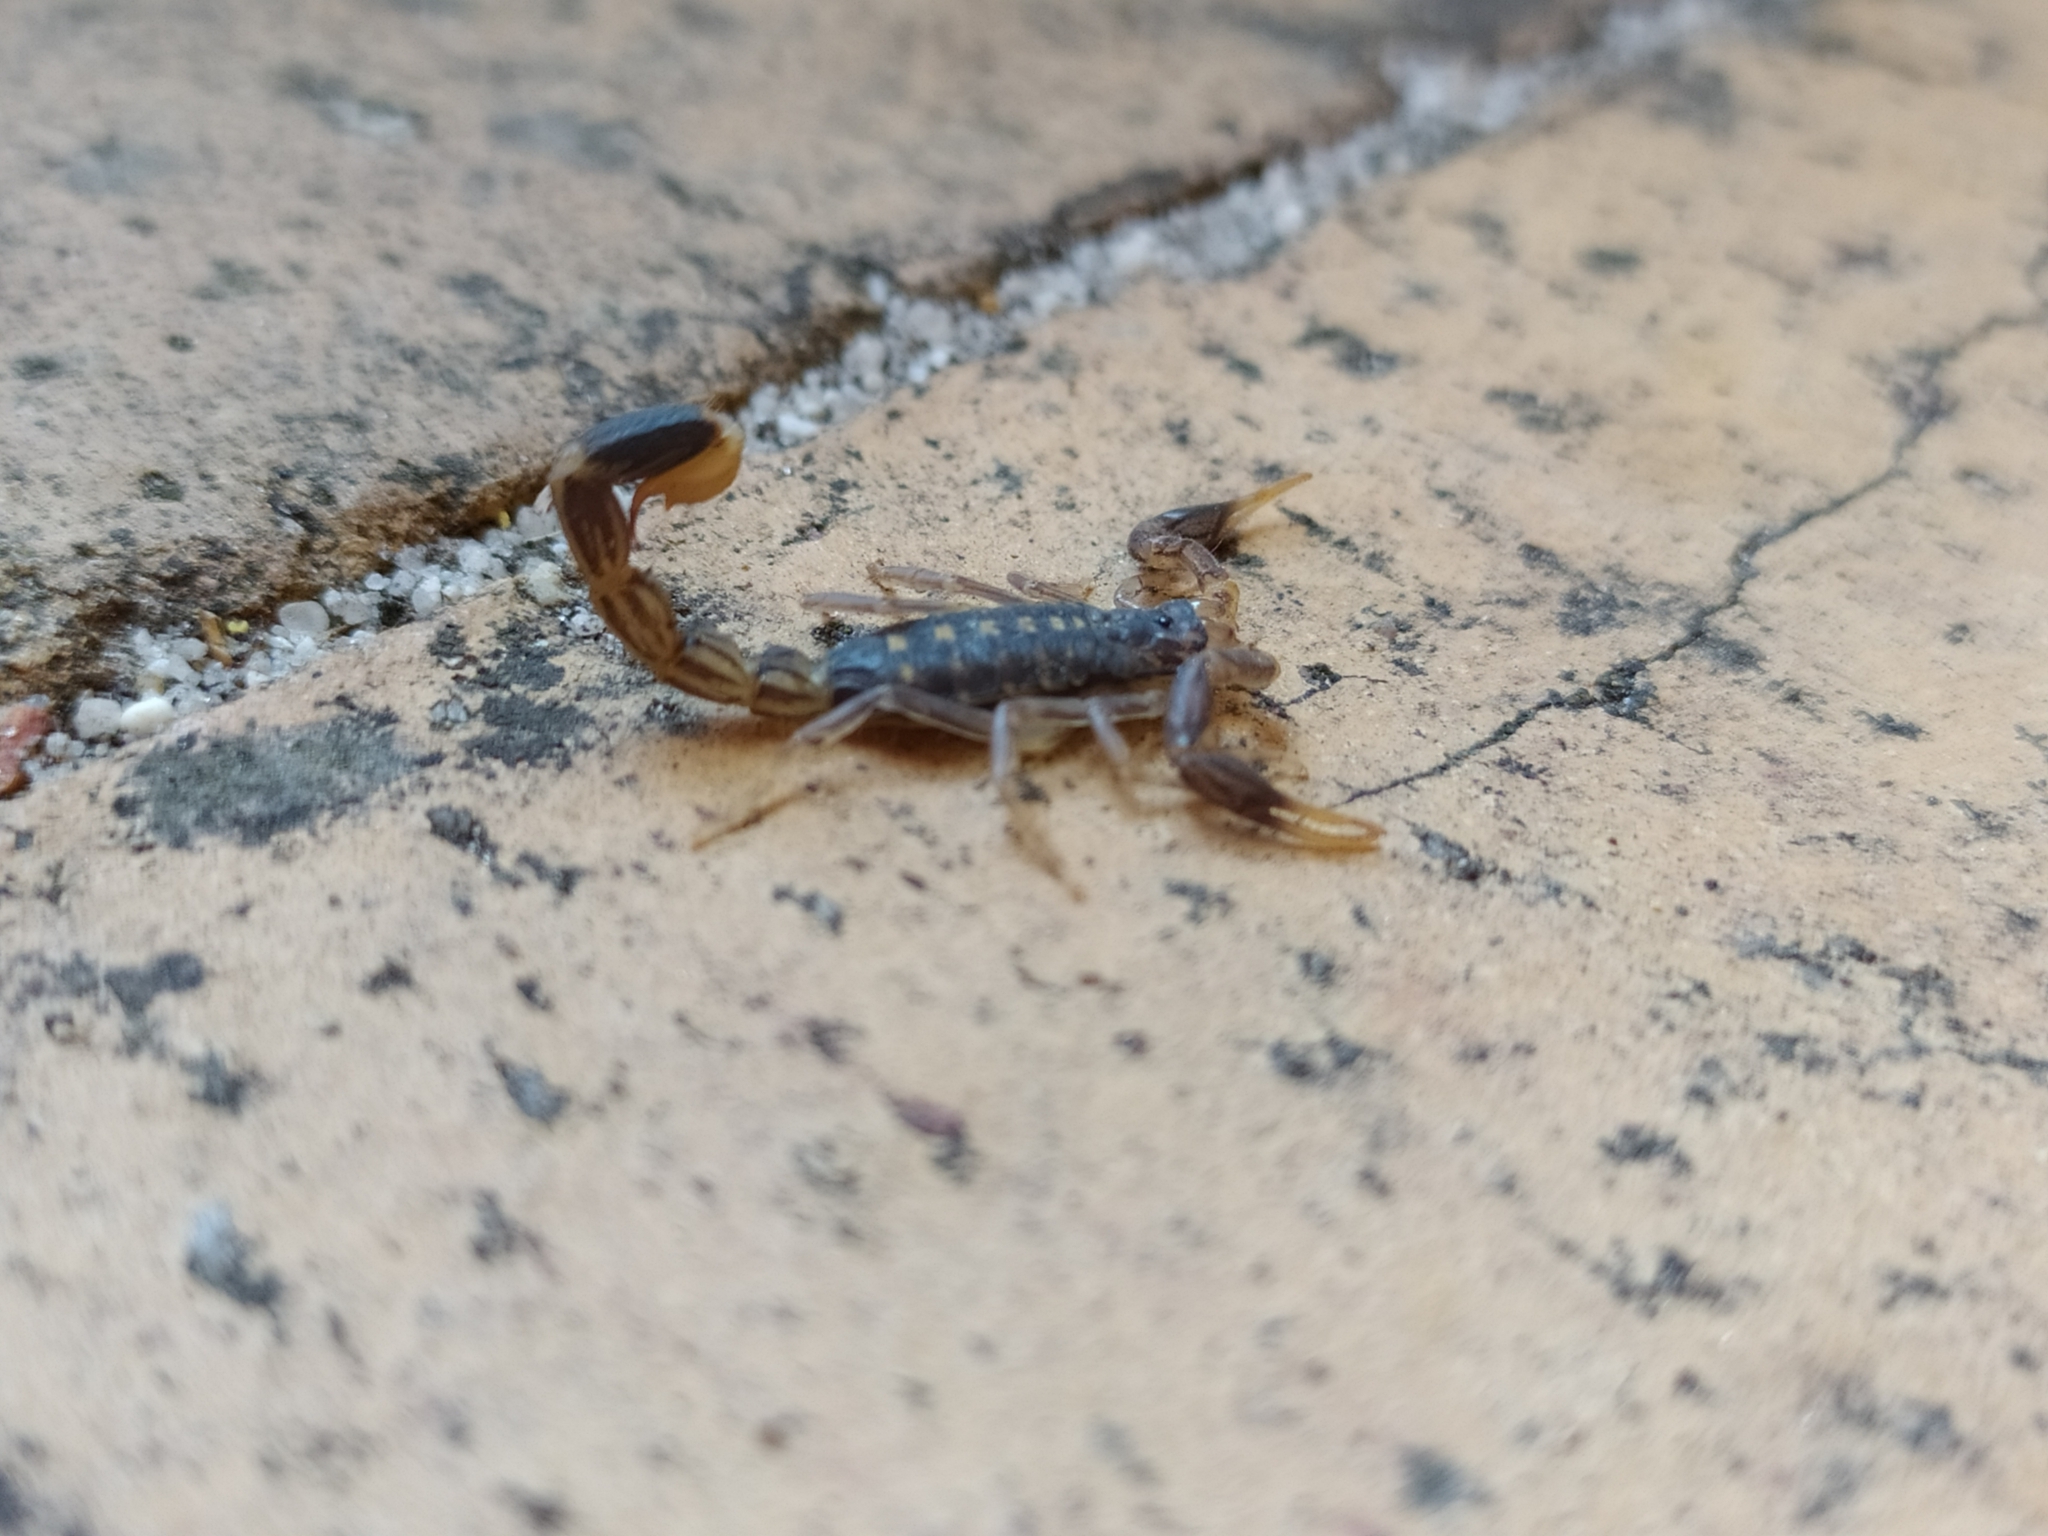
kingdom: Animalia
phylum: Arthropoda
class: Arachnida
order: Scorpiones
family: Buthidae
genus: Uroplectes
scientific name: Uroplectes lineatus
